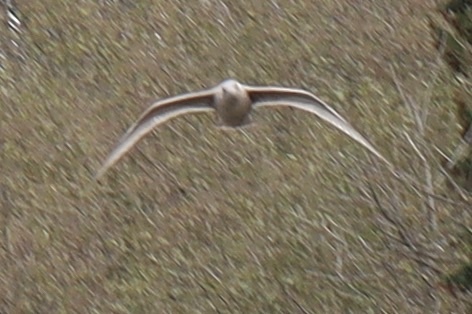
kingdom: Animalia
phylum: Chordata
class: Aves
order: Charadriiformes
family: Laridae
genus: Larus
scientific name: Larus
